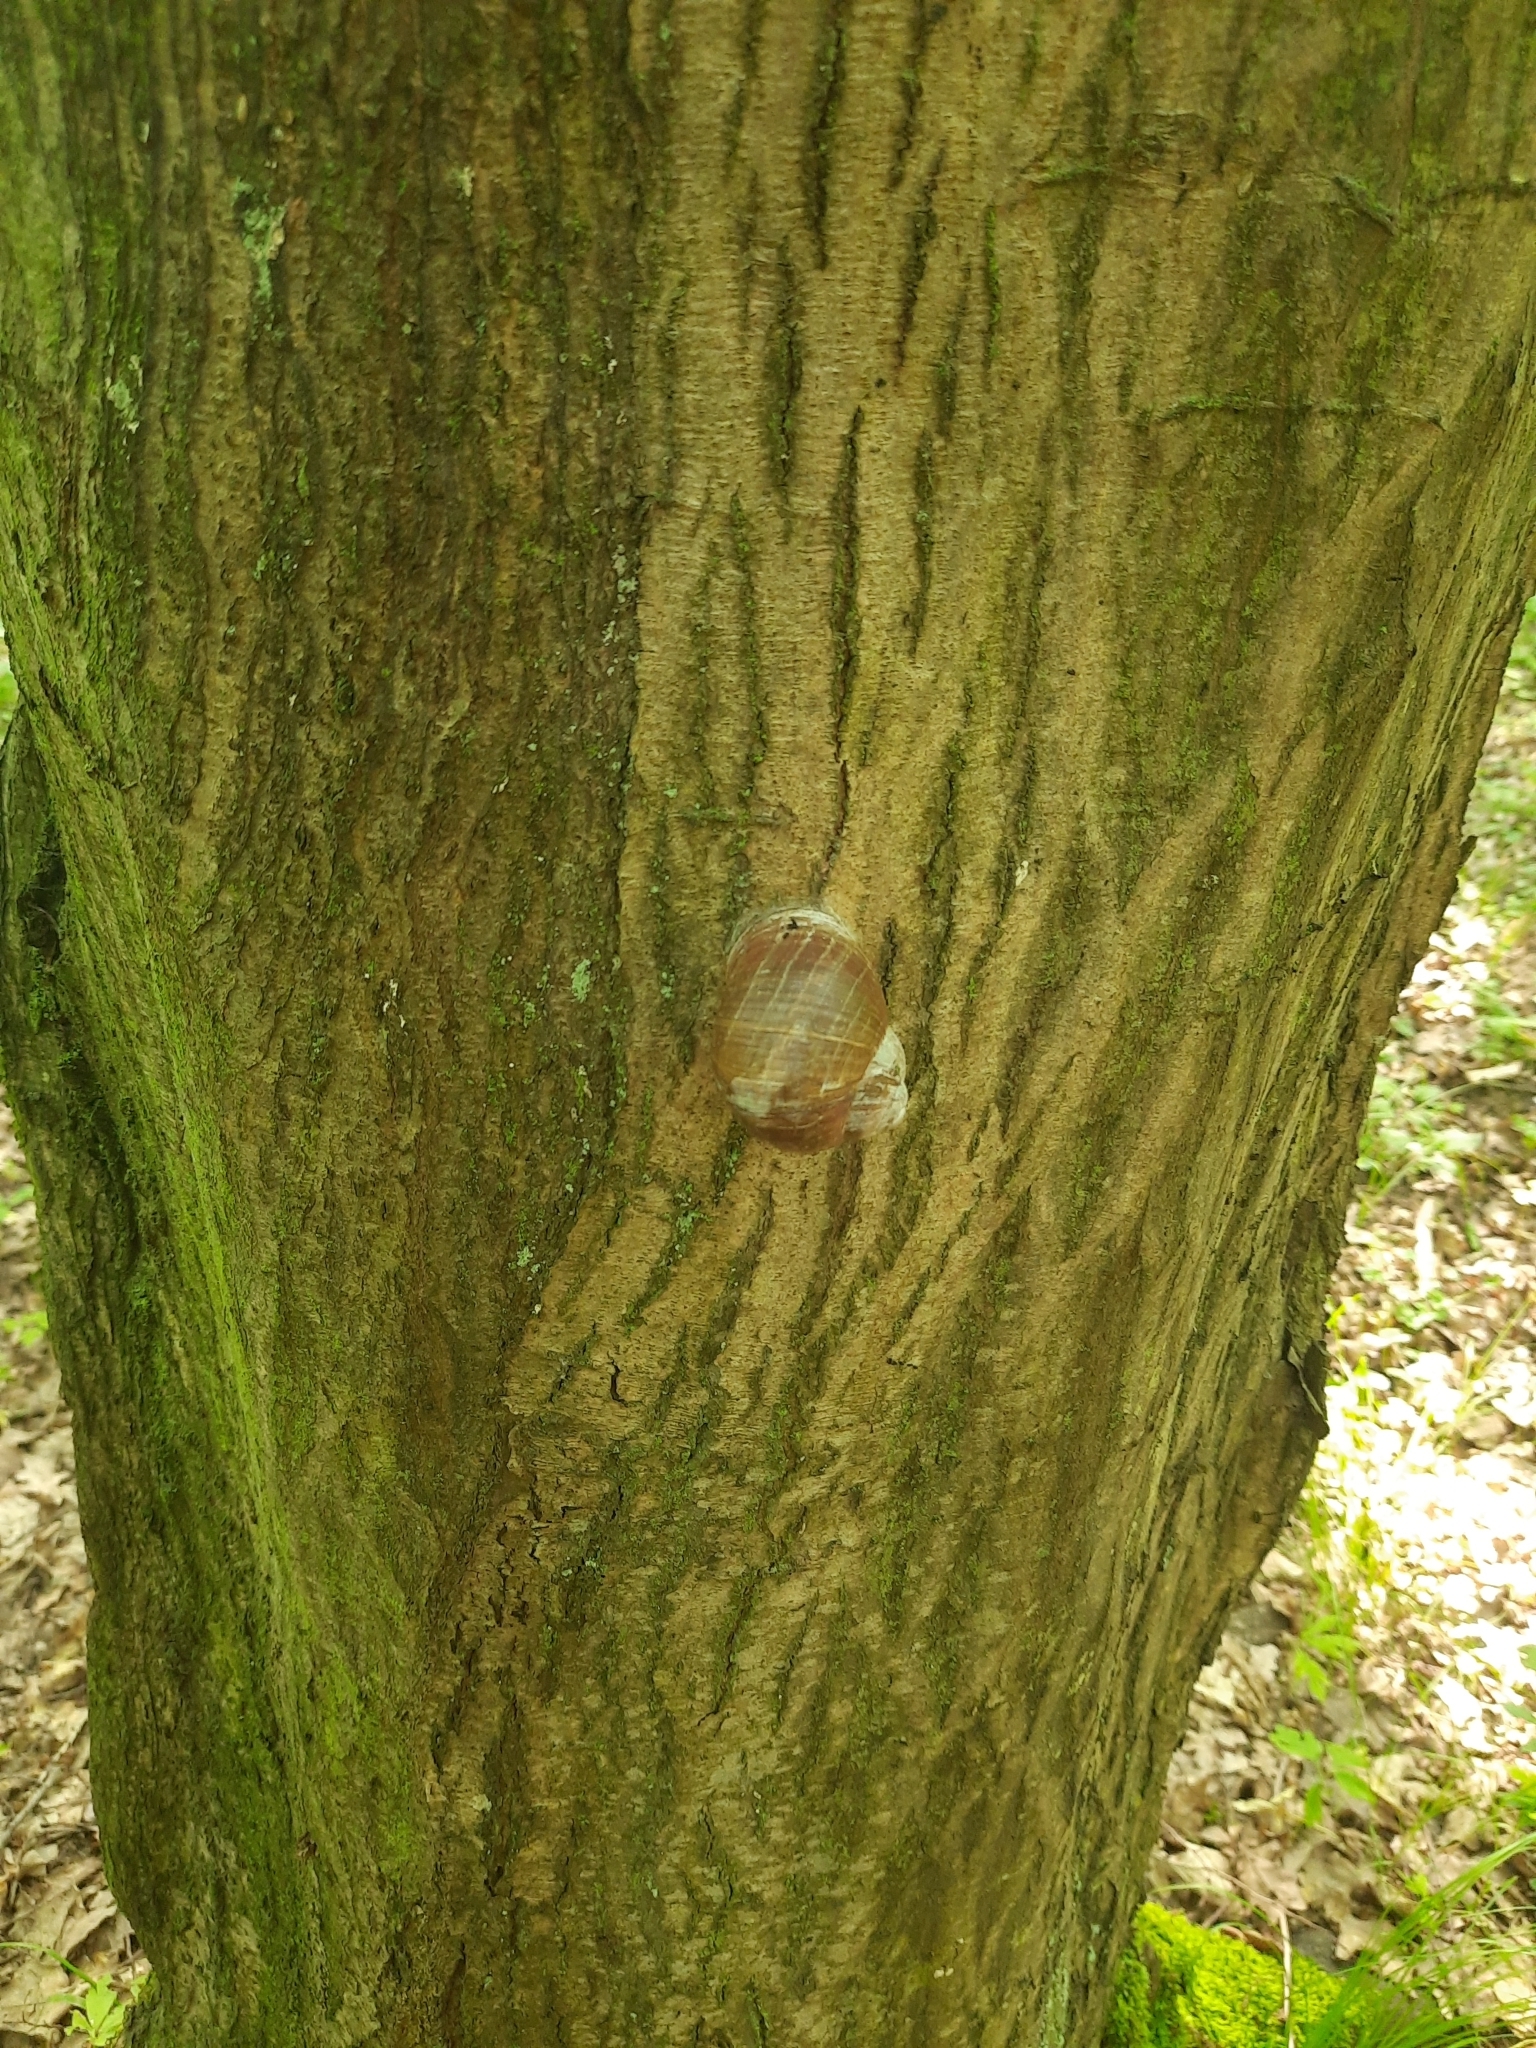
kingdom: Animalia
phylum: Mollusca
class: Gastropoda
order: Stylommatophora
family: Helicidae
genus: Helix
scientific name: Helix pomatia
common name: Roman snail
